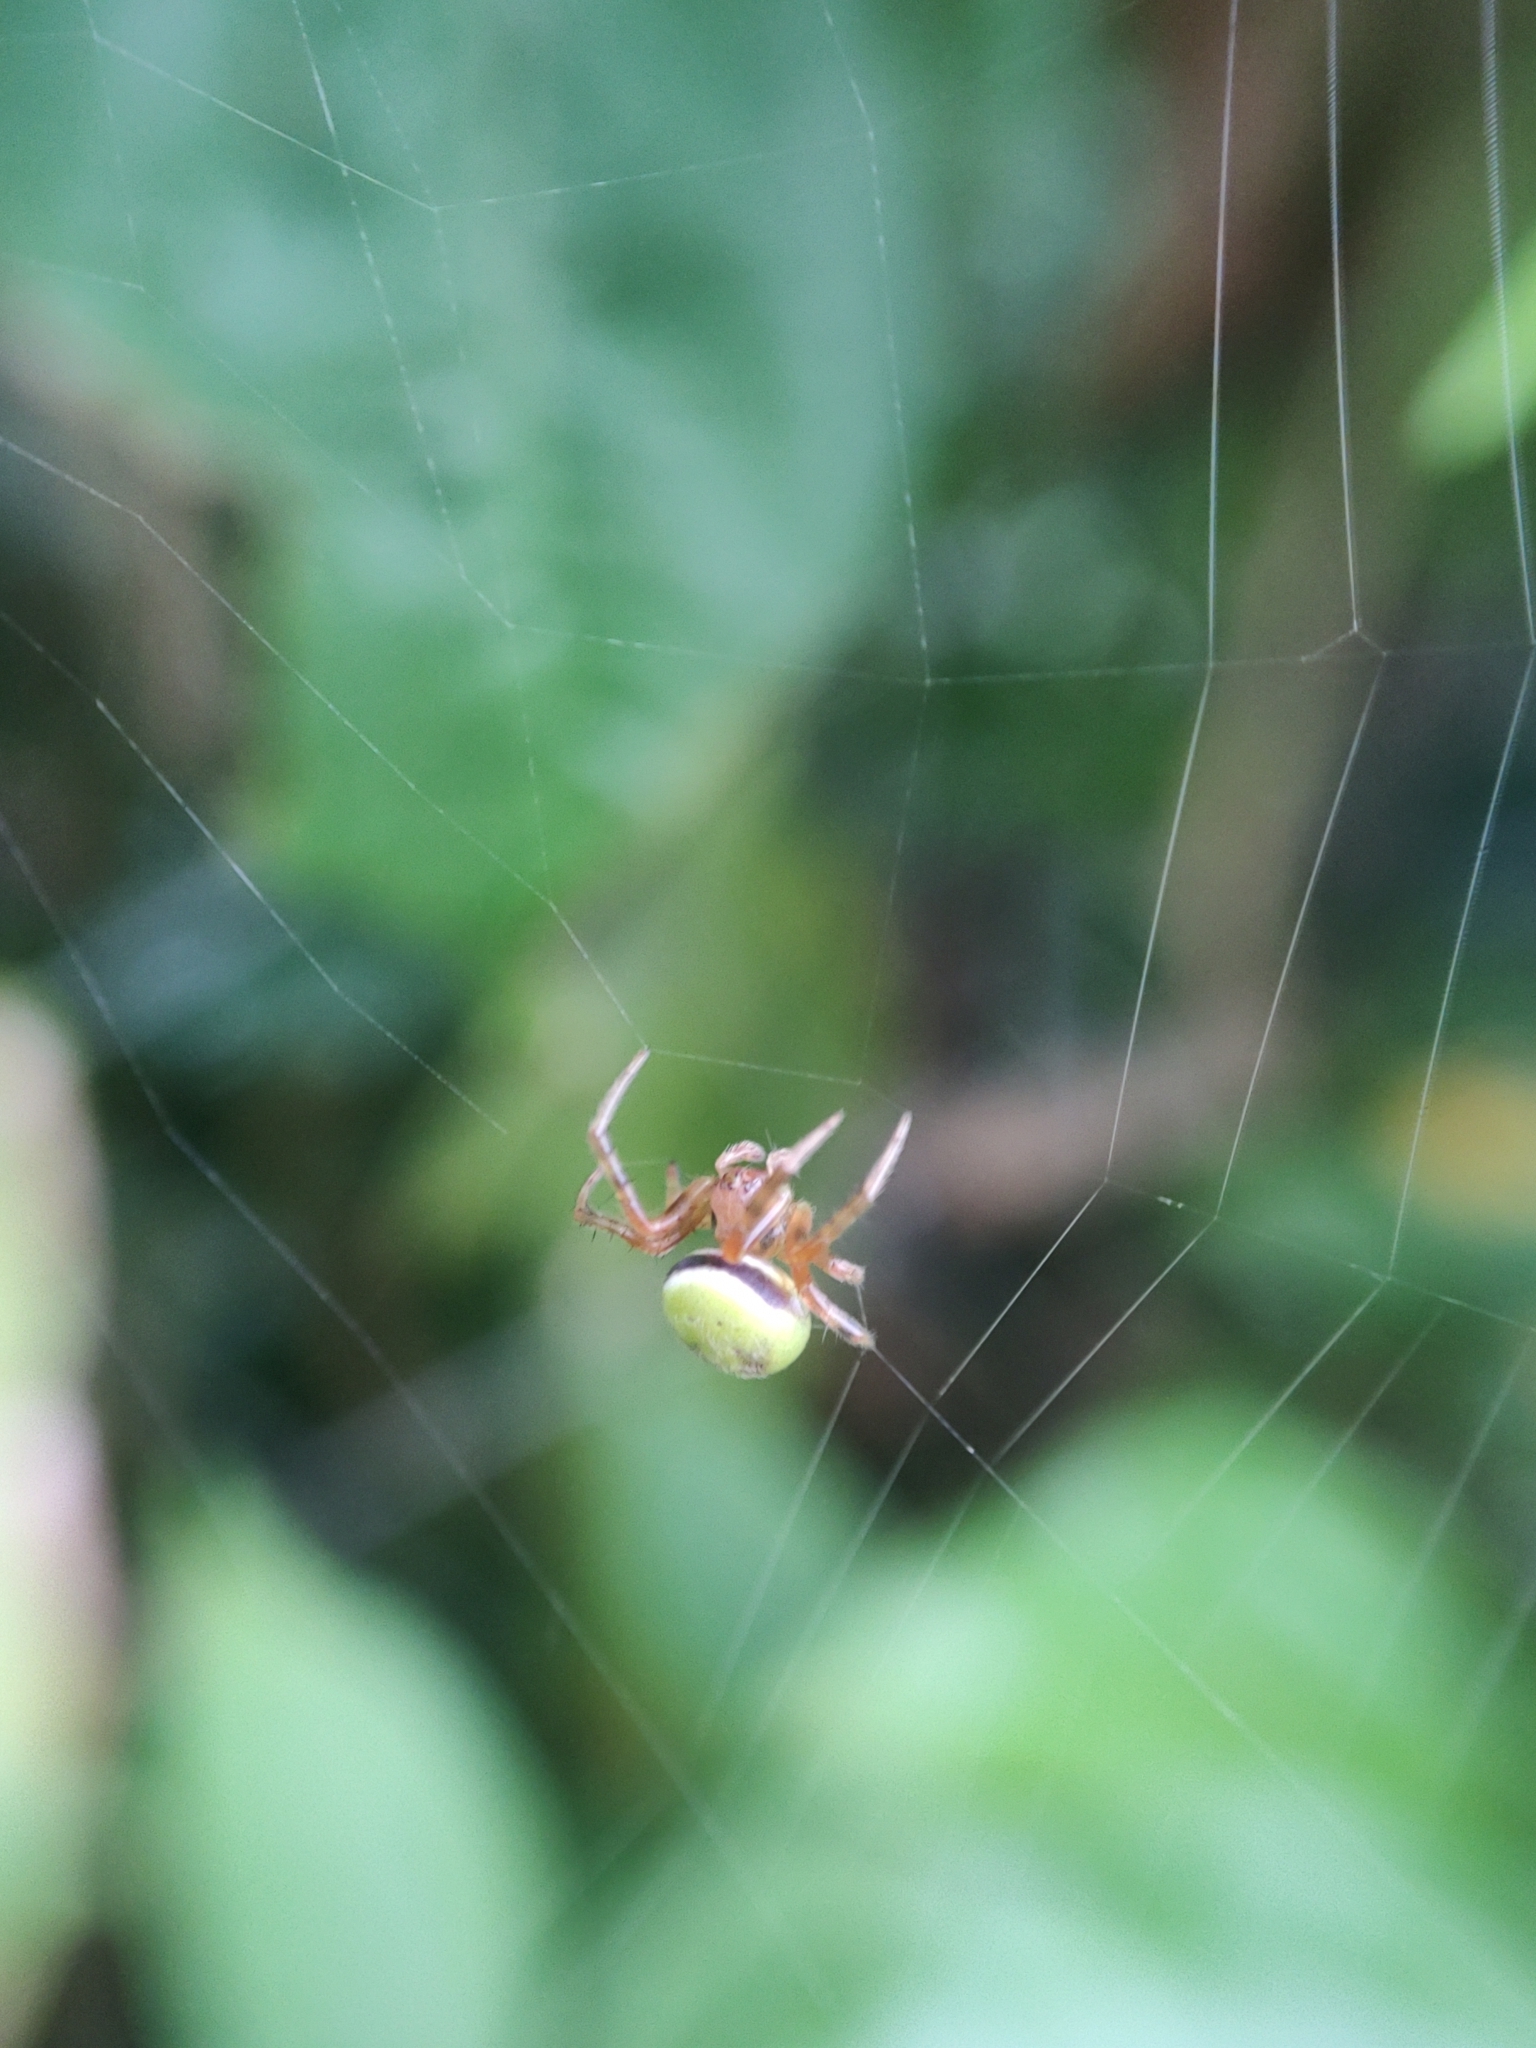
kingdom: Animalia
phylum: Arthropoda
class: Arachnida
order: Araneae
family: Araneidae
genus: Araneus
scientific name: Araneus lathyrinus
